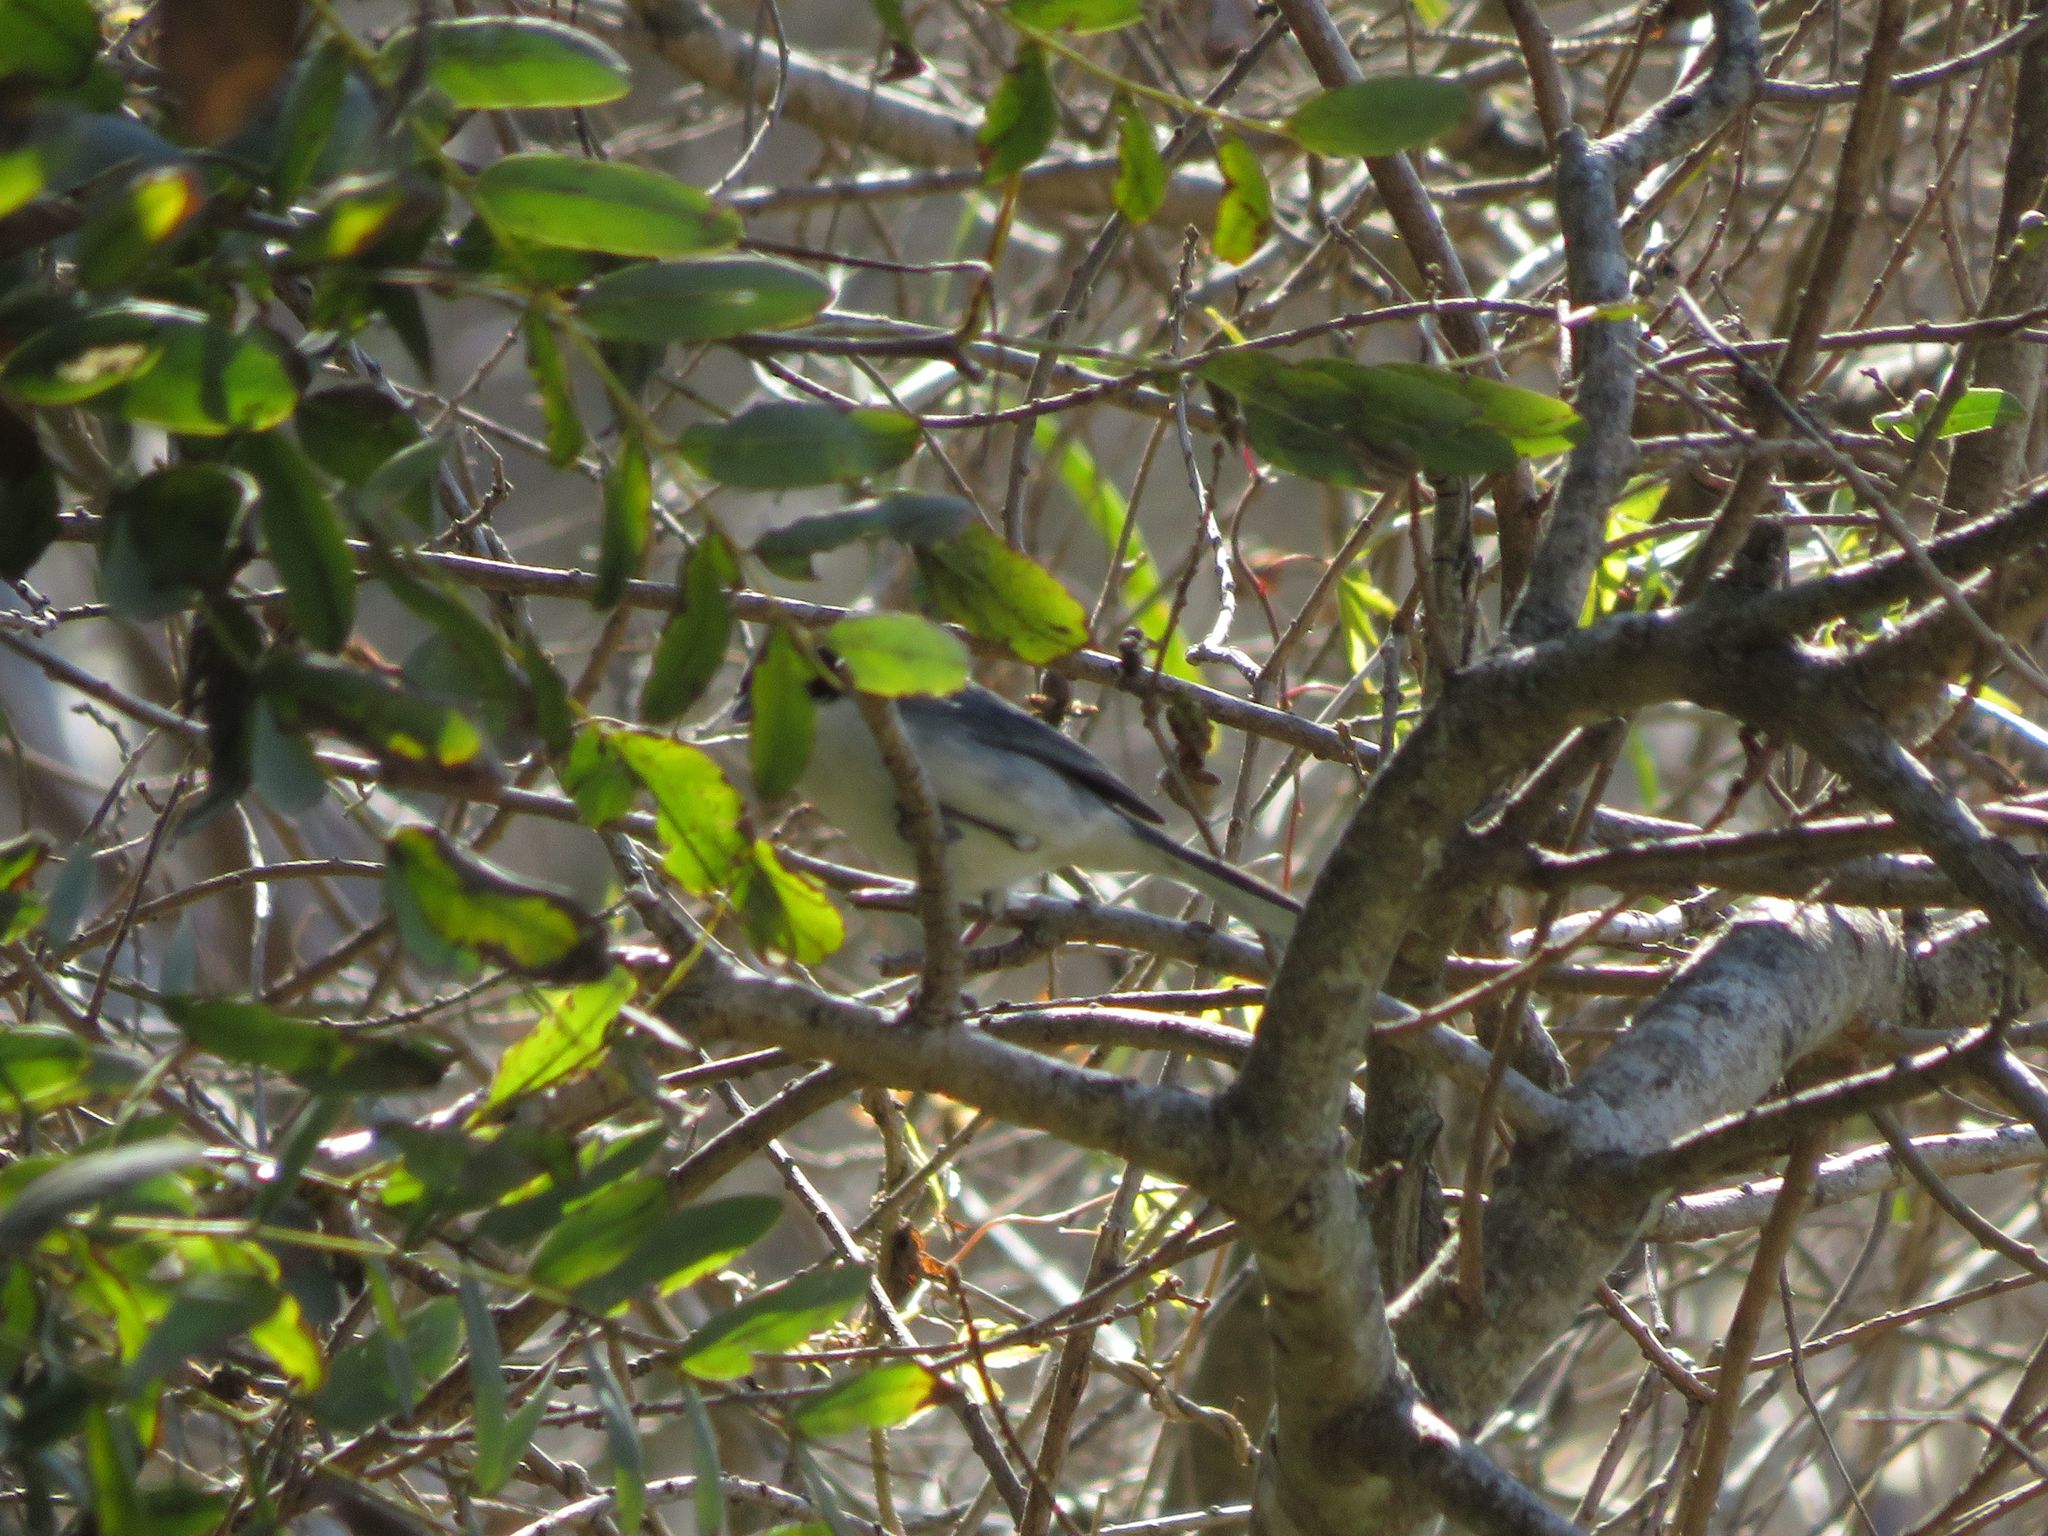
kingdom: Animalia
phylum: Chordata
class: Aves
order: Passeriformes
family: Thraupidae
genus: Microspingus
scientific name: Microspingus melanoleucus
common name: Black-capped warbling-finch
